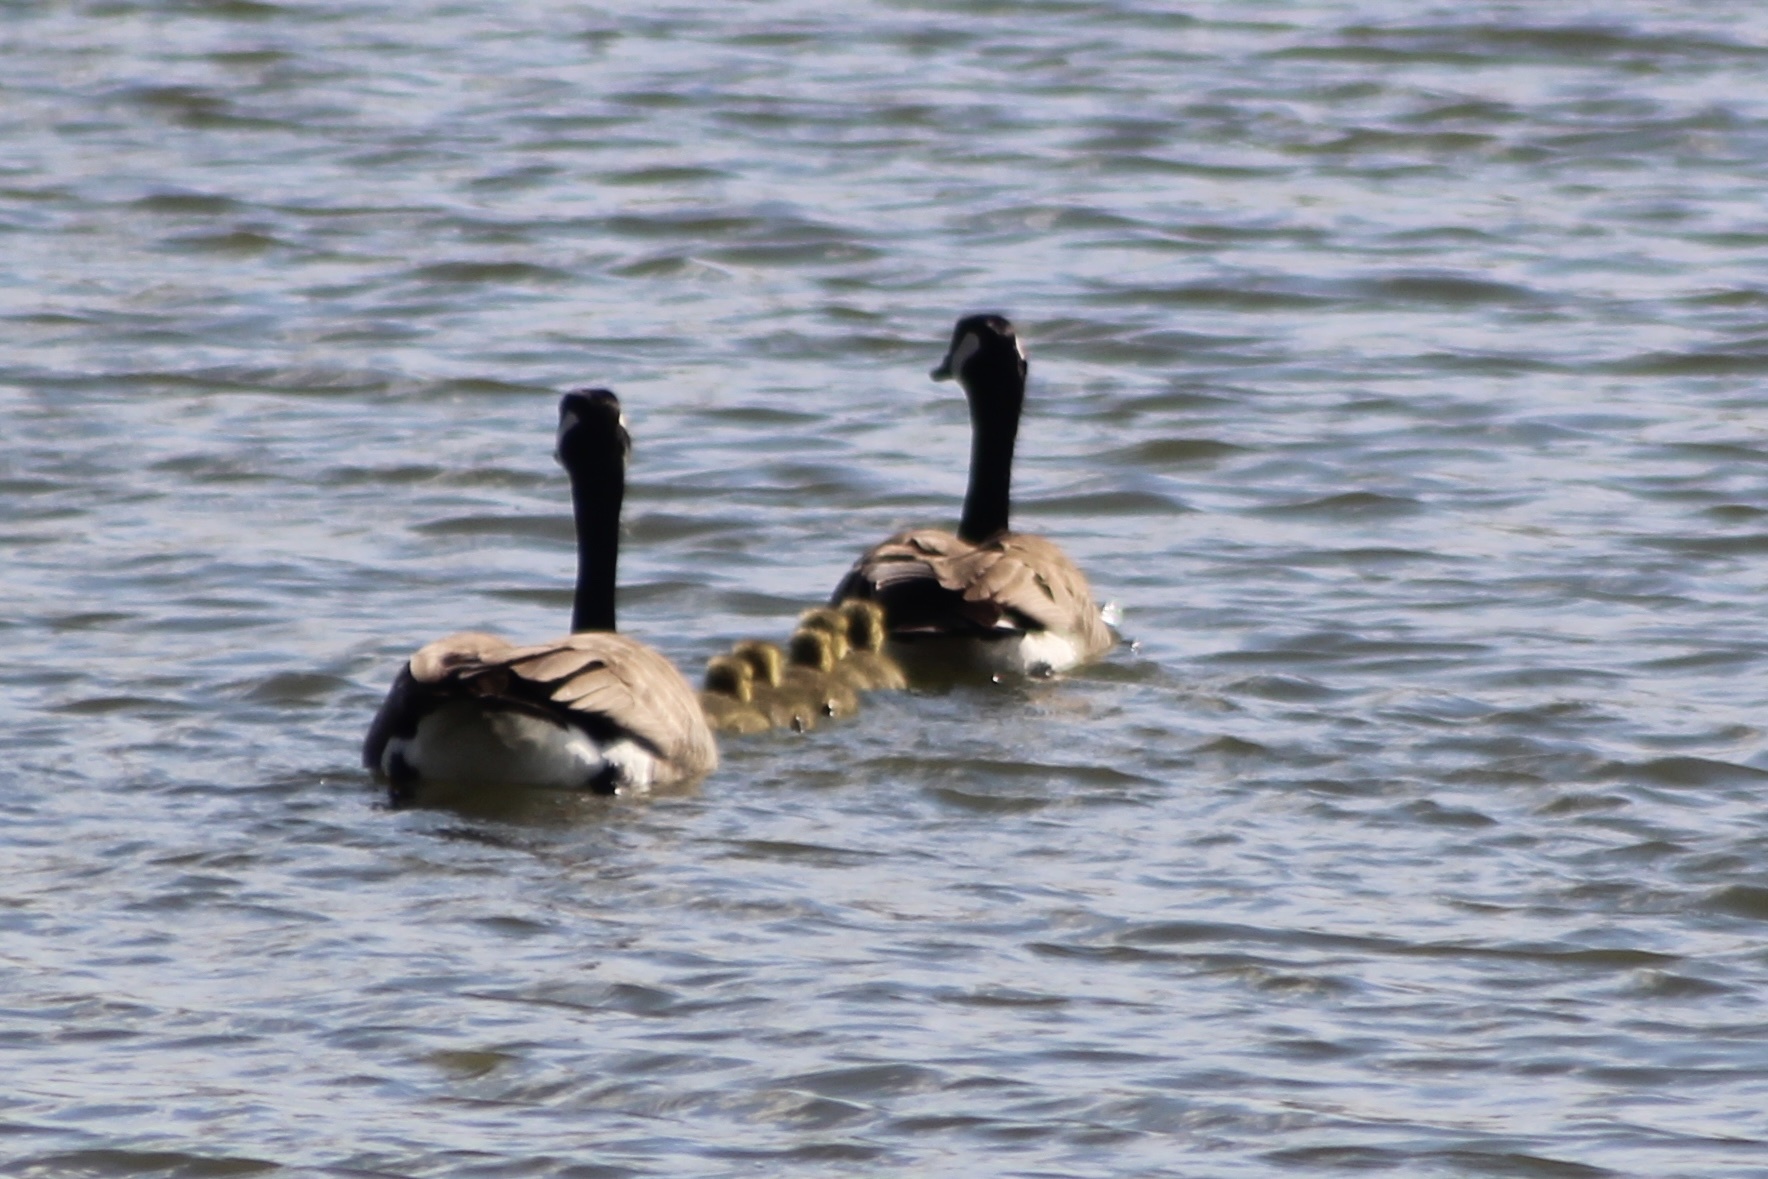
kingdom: Animalia
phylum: Chordata
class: Aves
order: Anseriformes
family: Anatidae
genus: Branta
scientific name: Branta canadensis
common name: Canada goose
